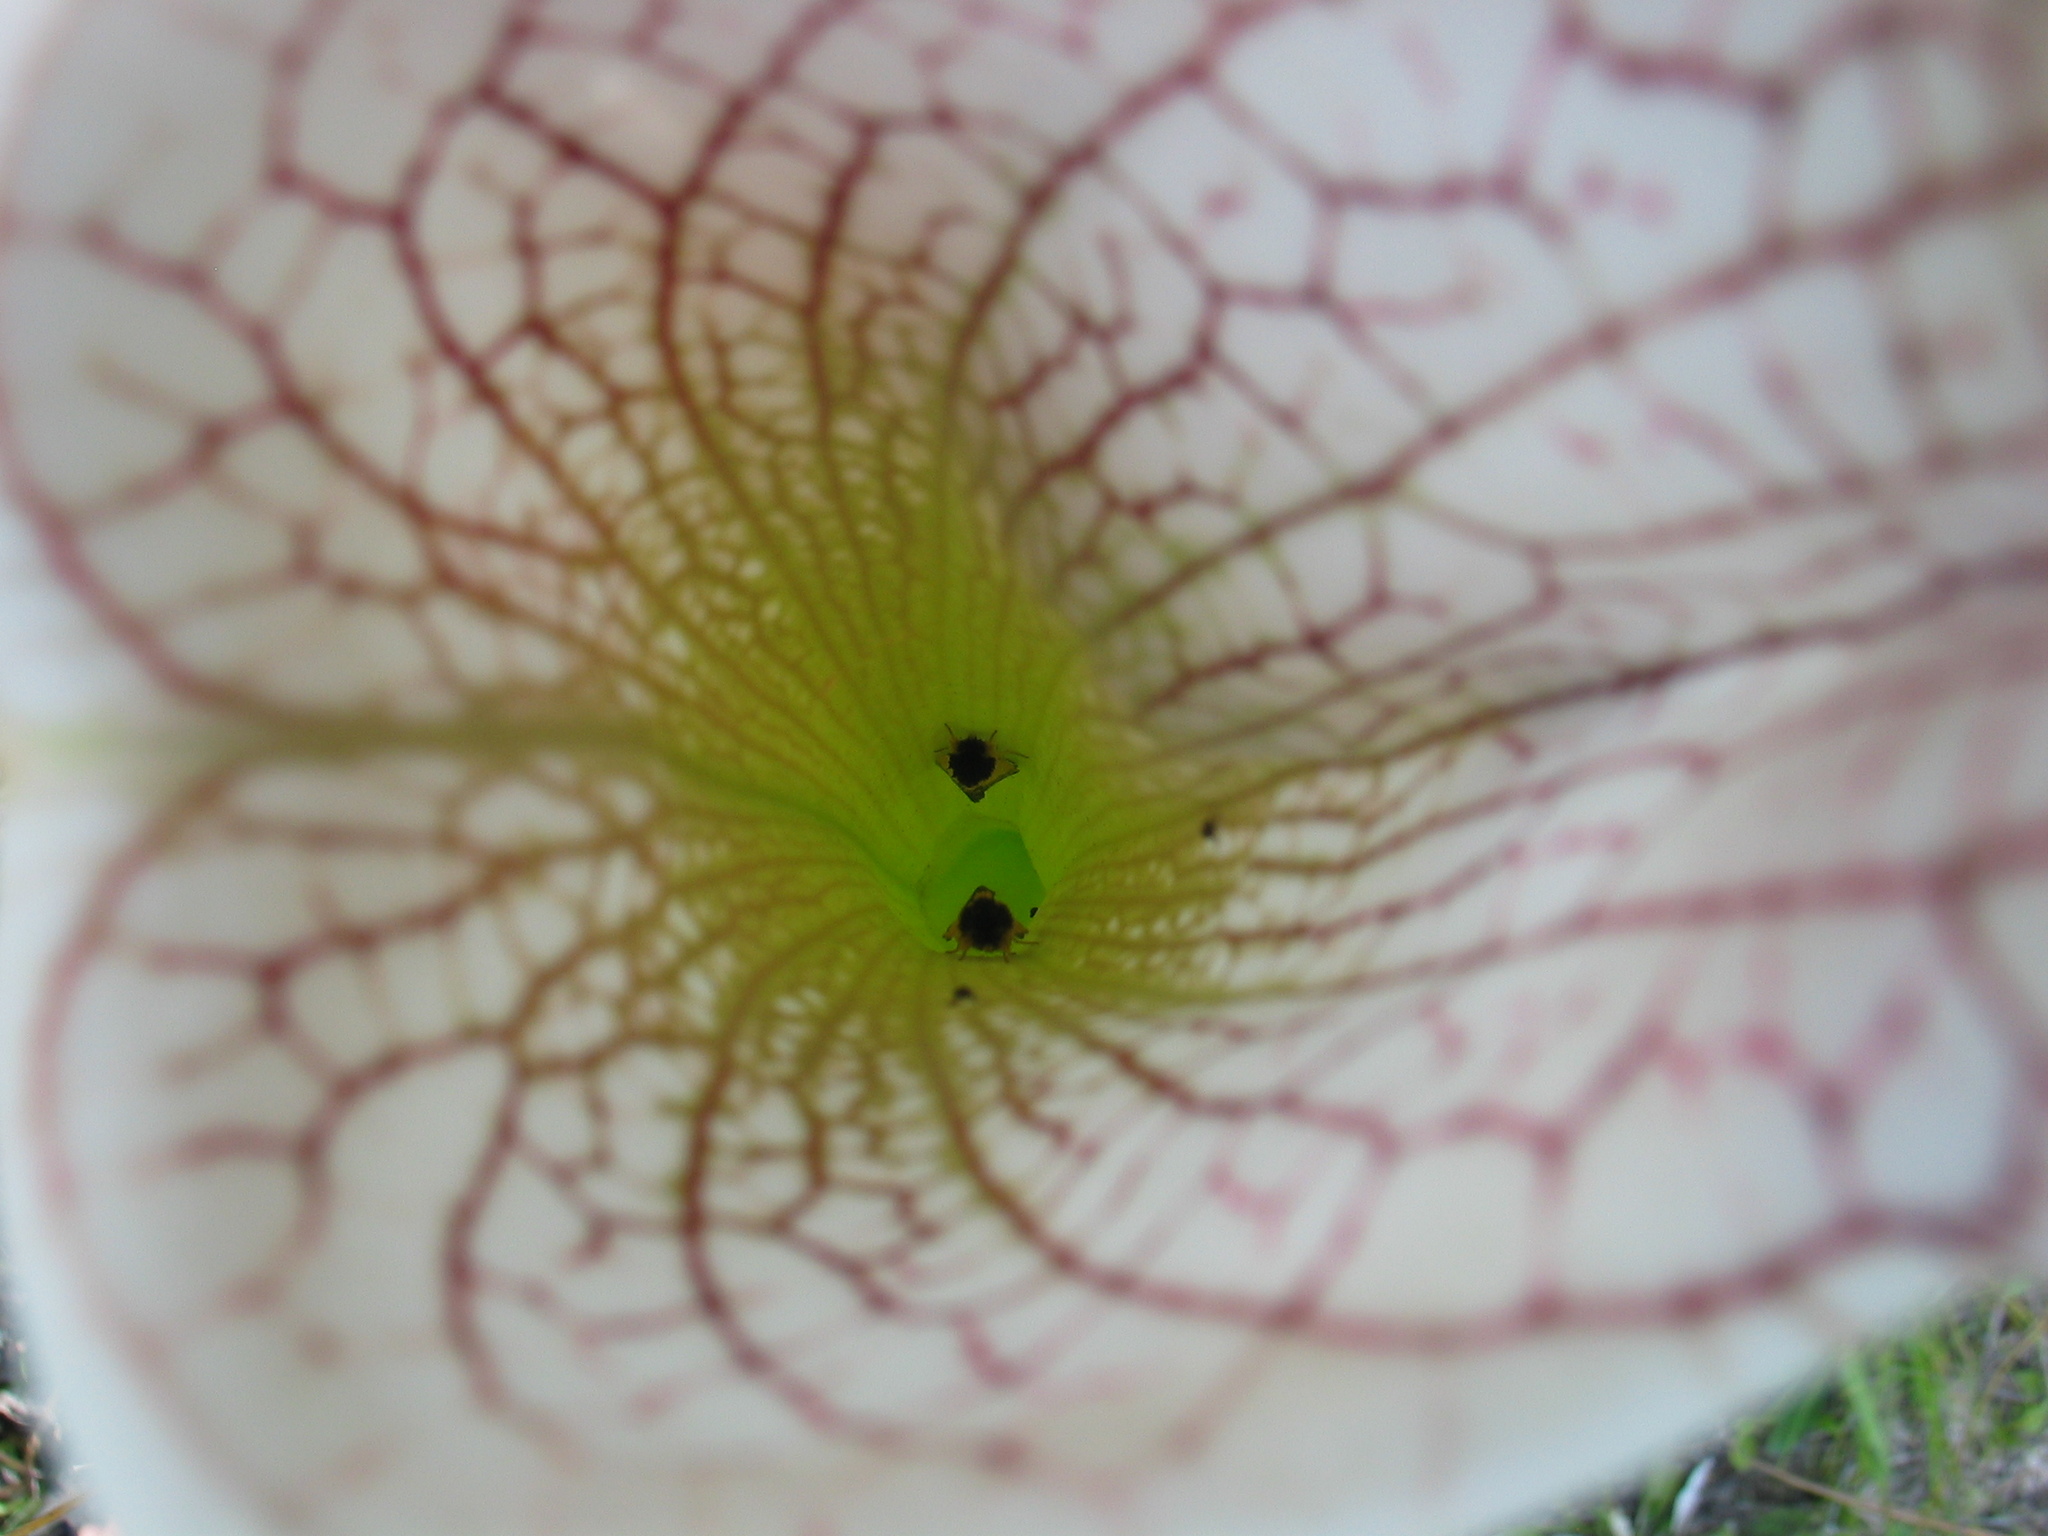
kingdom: Animalia
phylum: Arthropoda
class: Insecta
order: Lepidoptera
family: Noctuidae
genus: Exyra
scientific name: Exyra semicrocea
